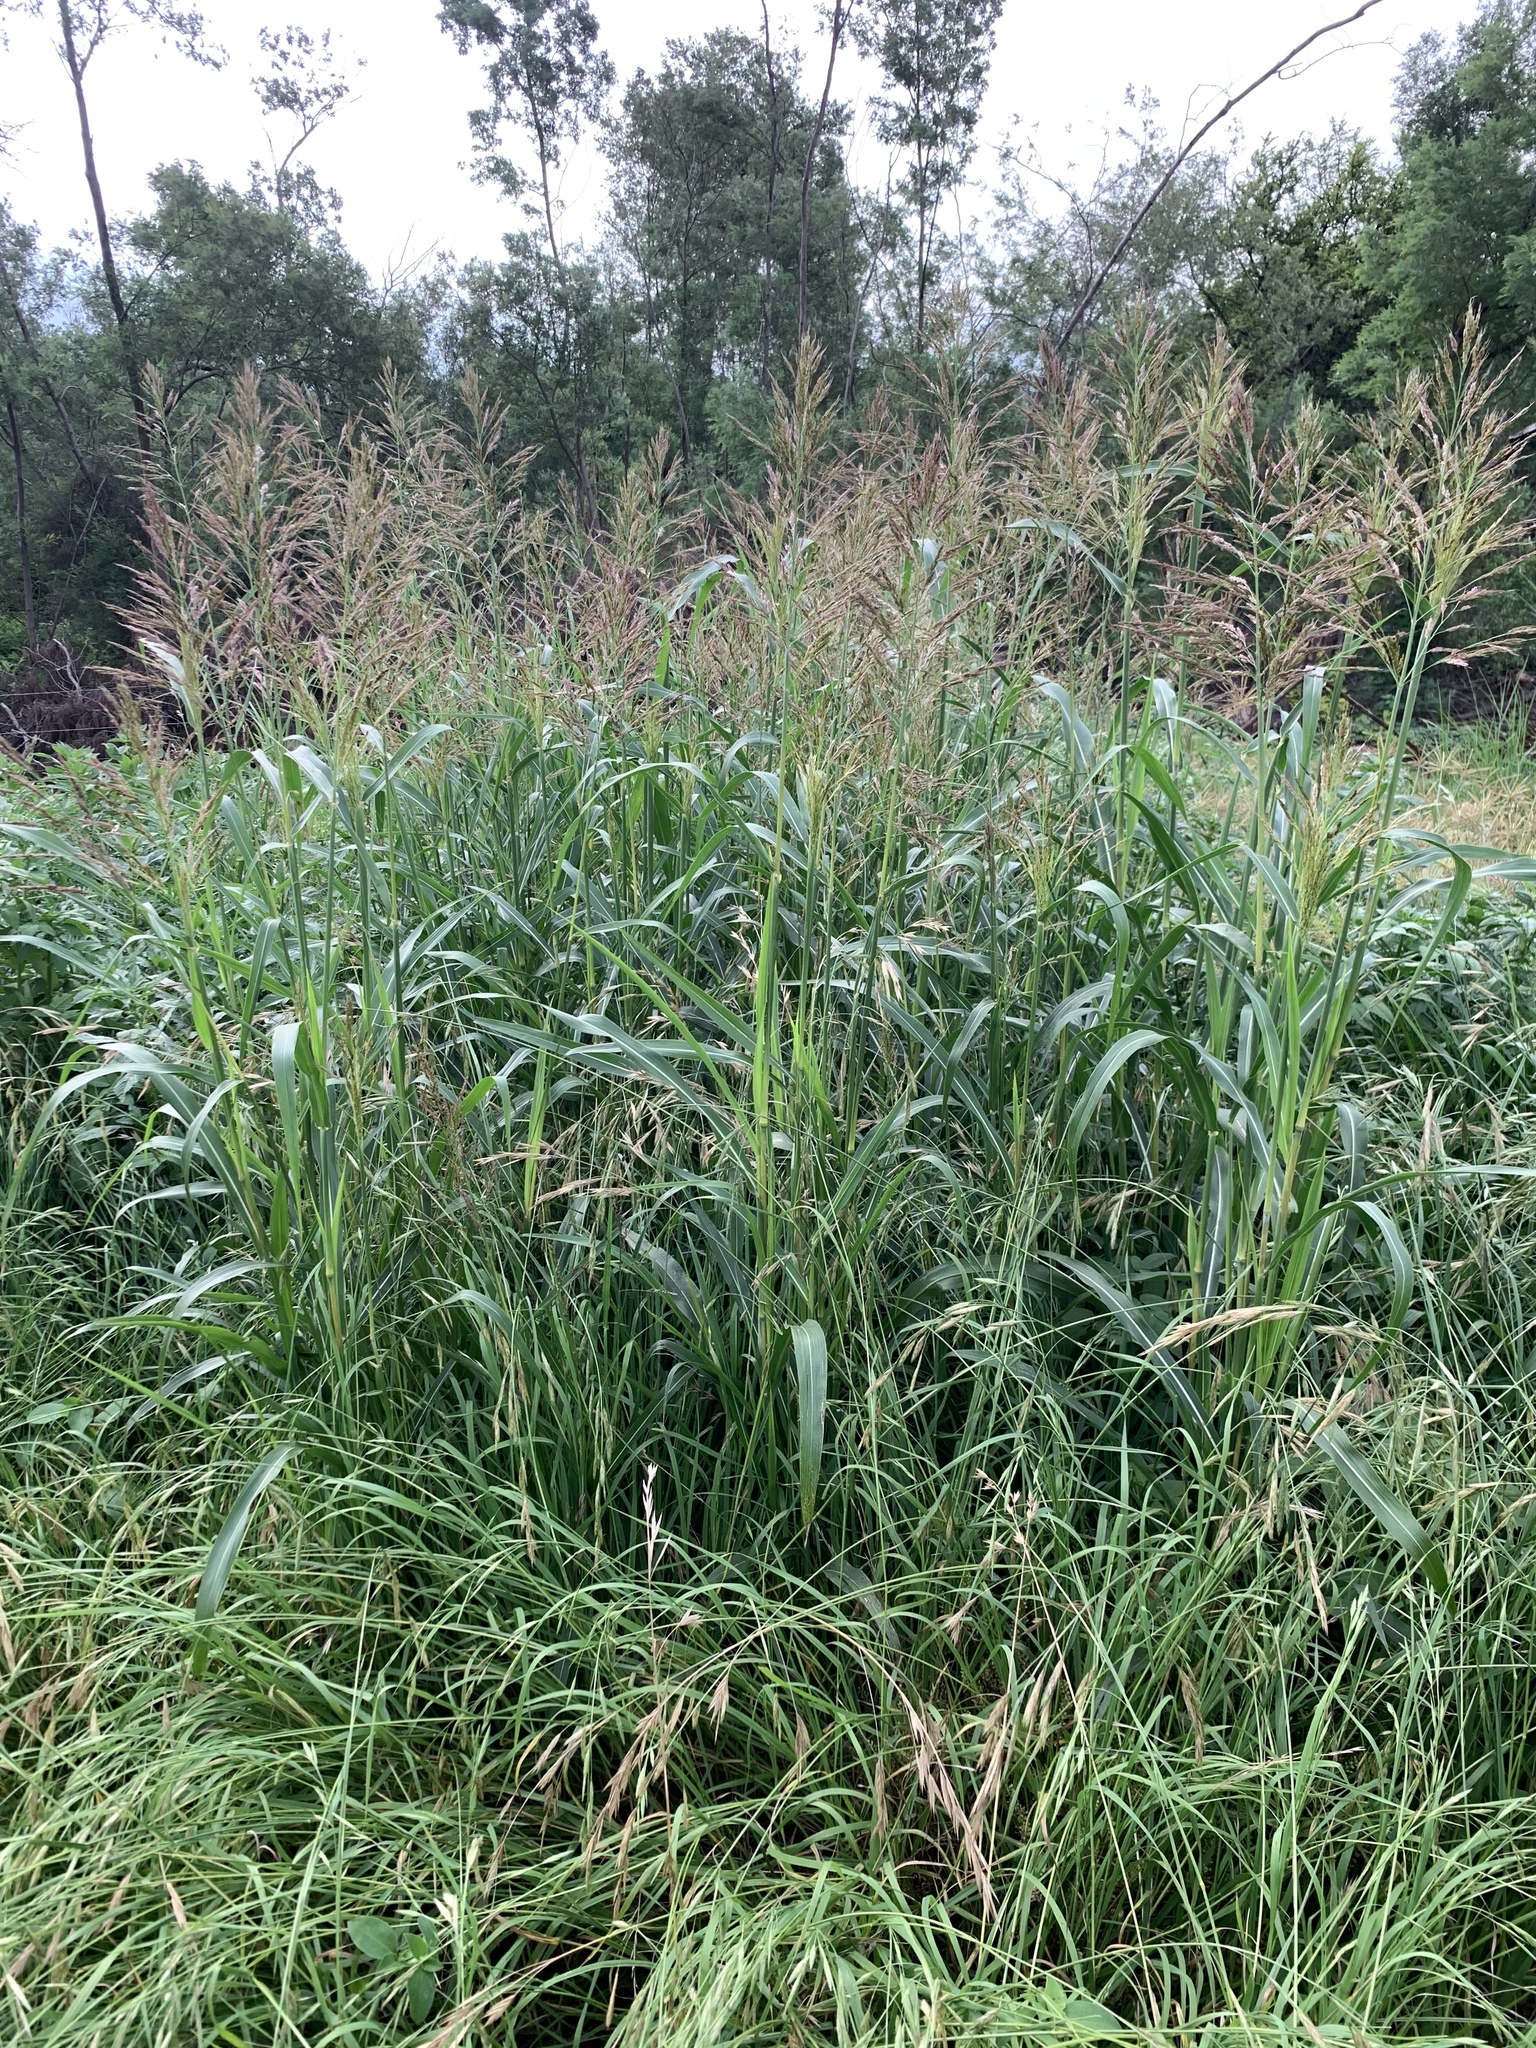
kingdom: Plantae
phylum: Tracheophyta
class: Liliopsida
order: Poales
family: Poaceae
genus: Sorghum
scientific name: Sorghum halepense
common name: Johnson-grass
